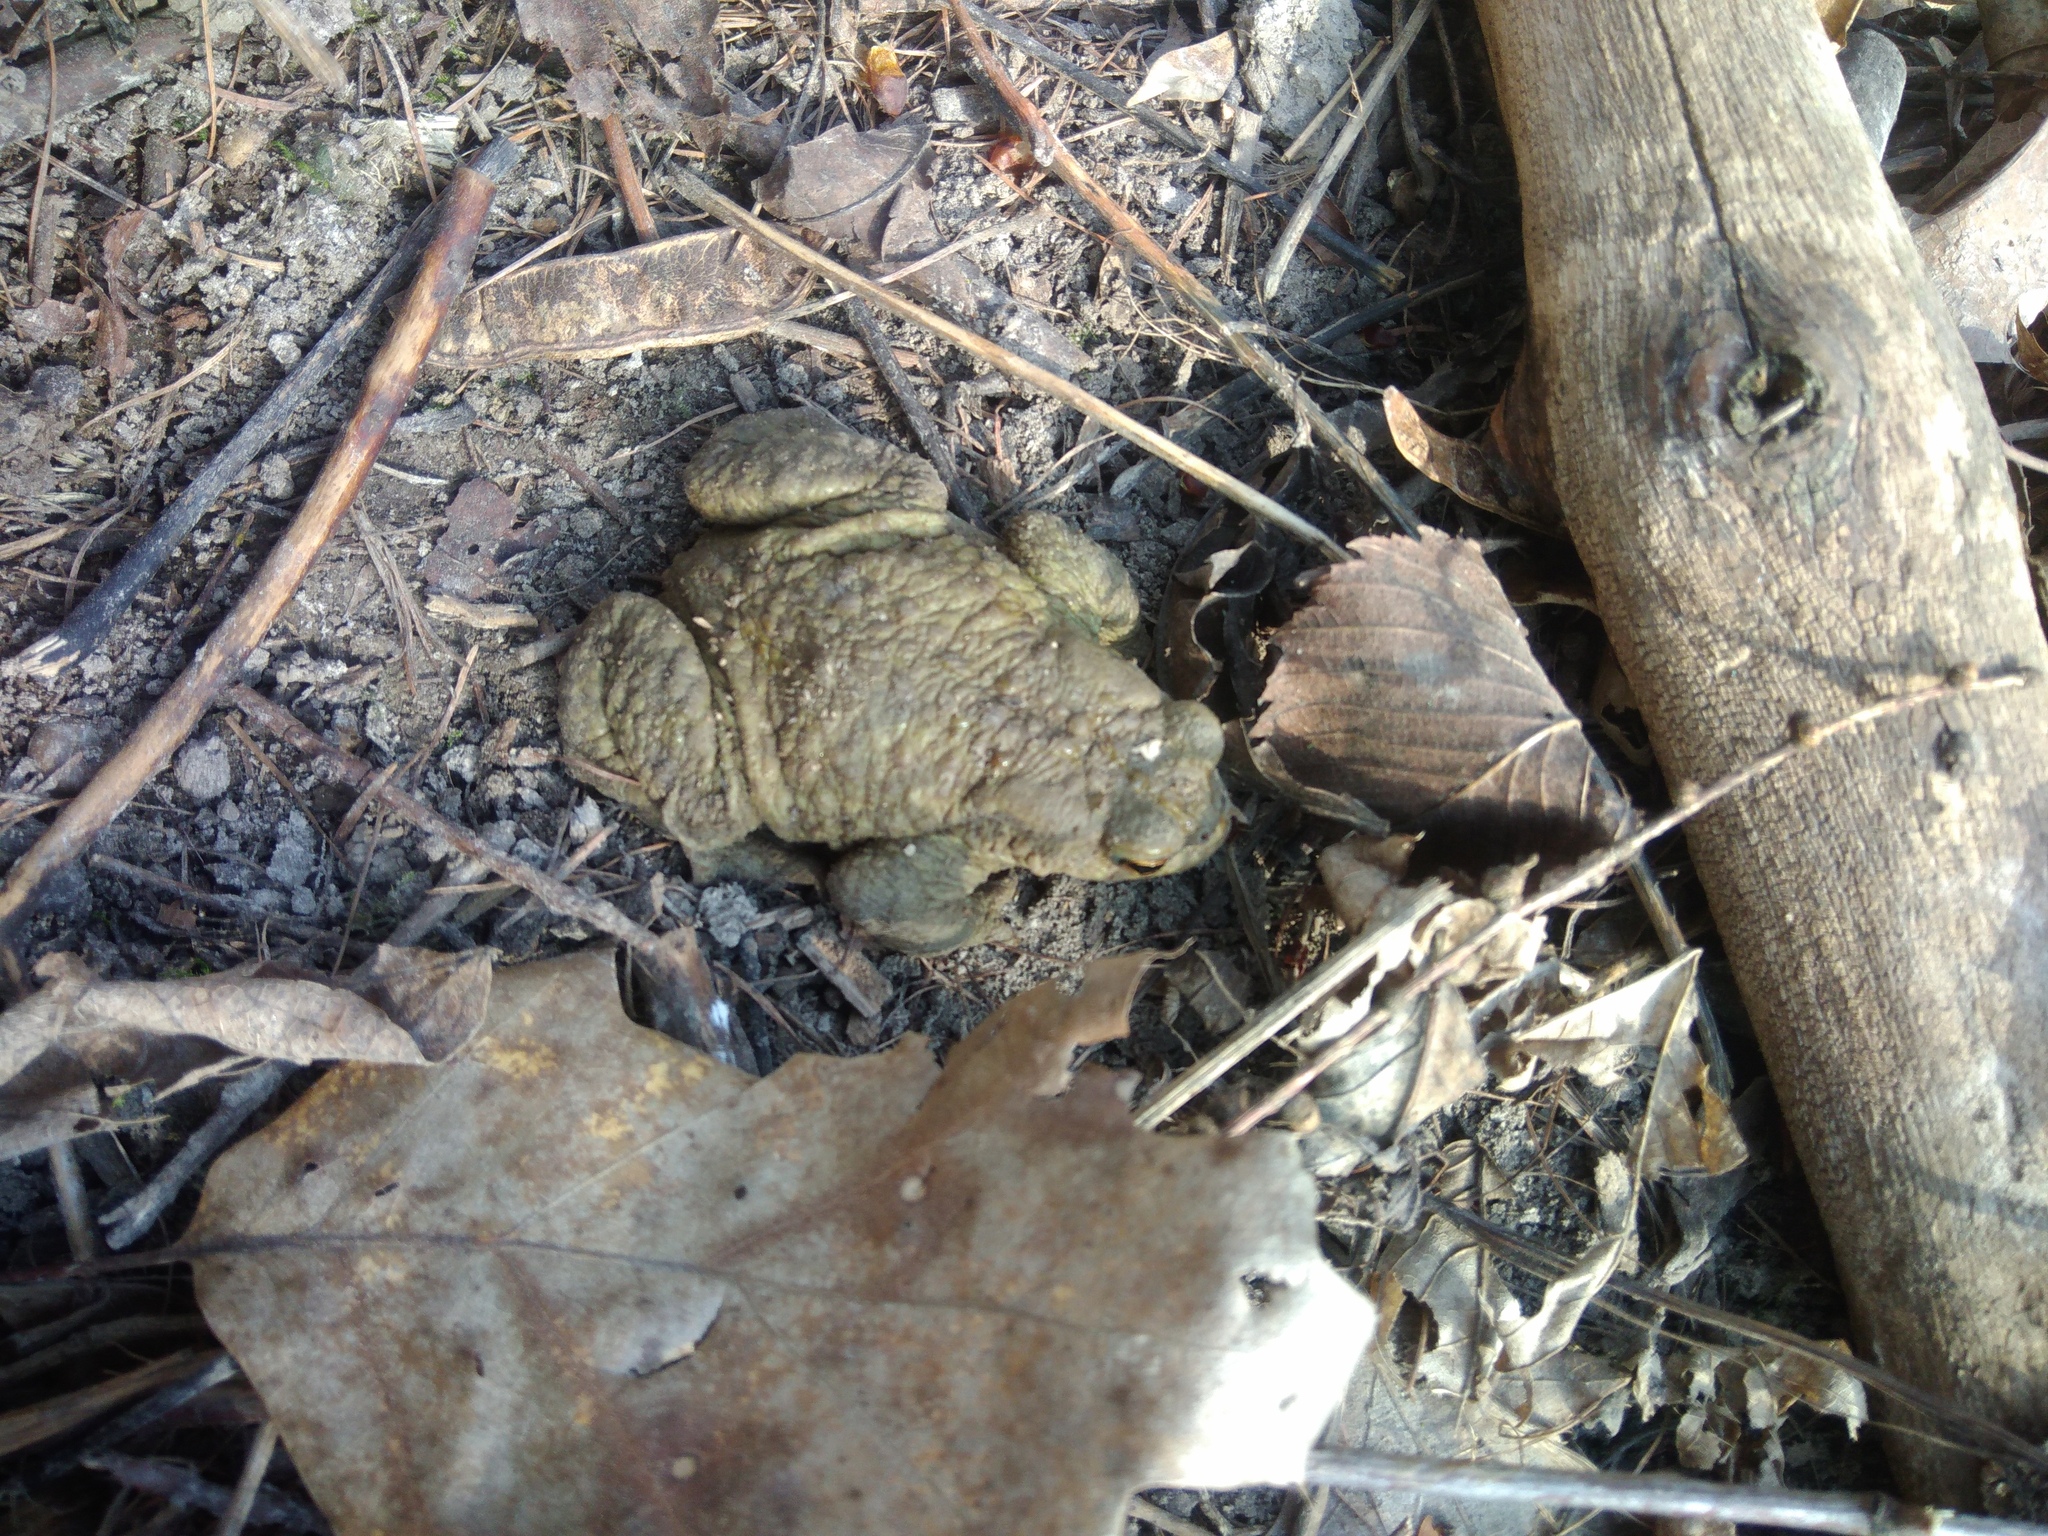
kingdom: Animalia
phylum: Chordata
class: Amphibia
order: Anura
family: Bufonidae
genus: Bufo
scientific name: Bufo bufo
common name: Common toad
